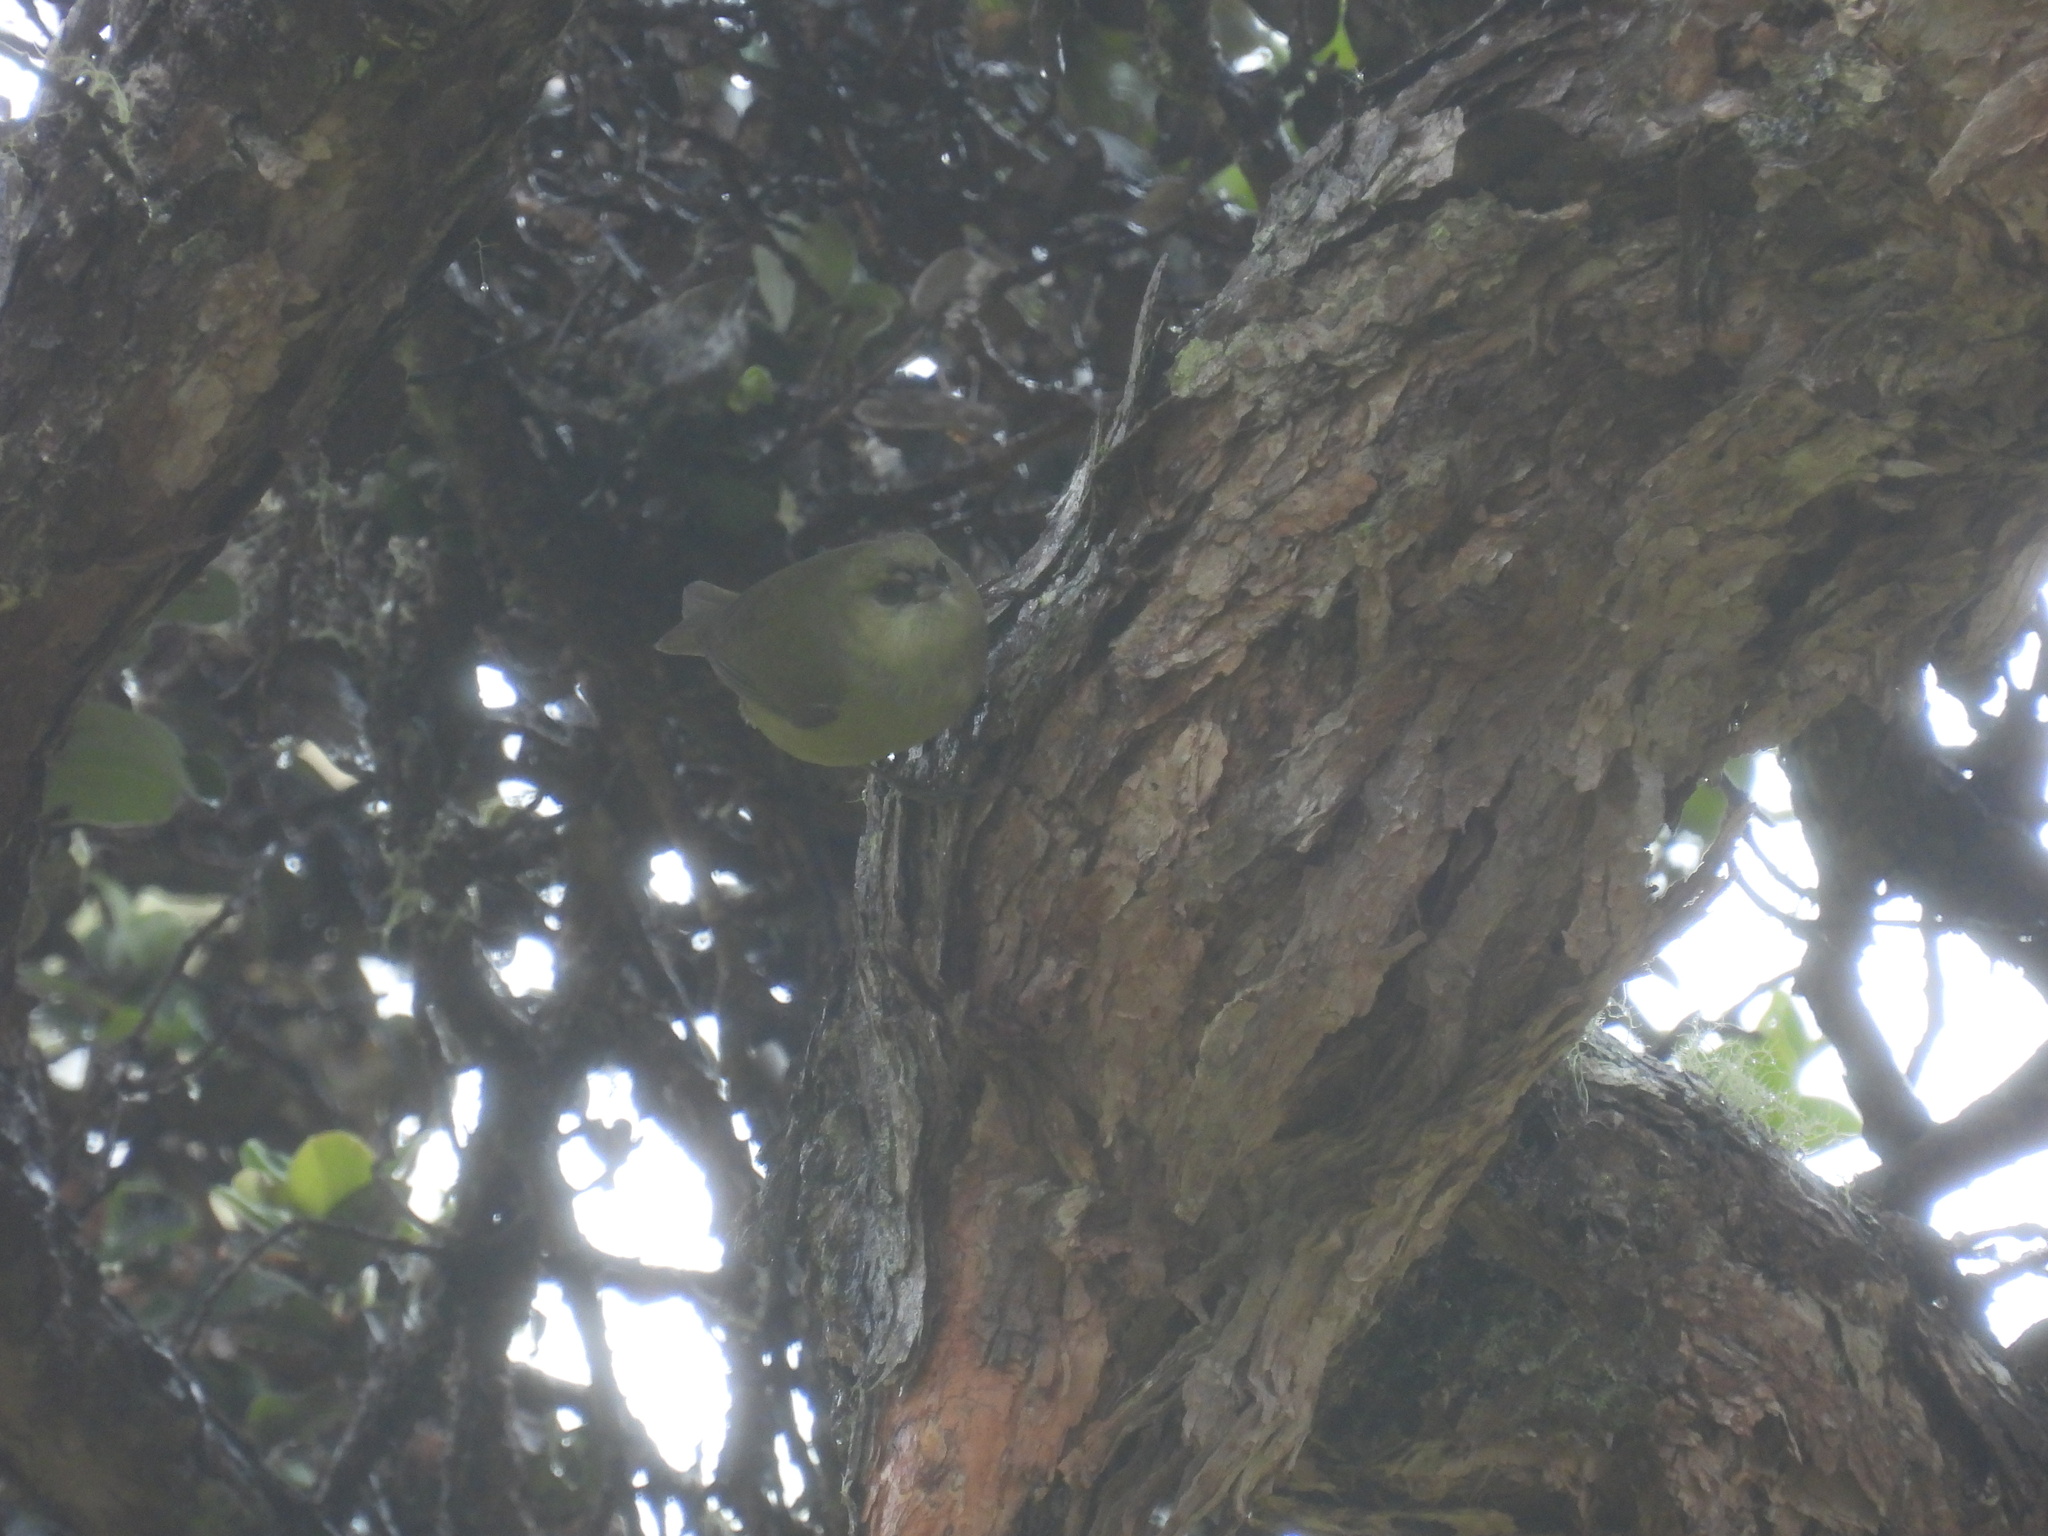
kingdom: Animalia
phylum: Chordata
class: Aves
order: Passeriformes
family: Fringillidae
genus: Loxops
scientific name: Loxops mana
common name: Hawaii creeper
